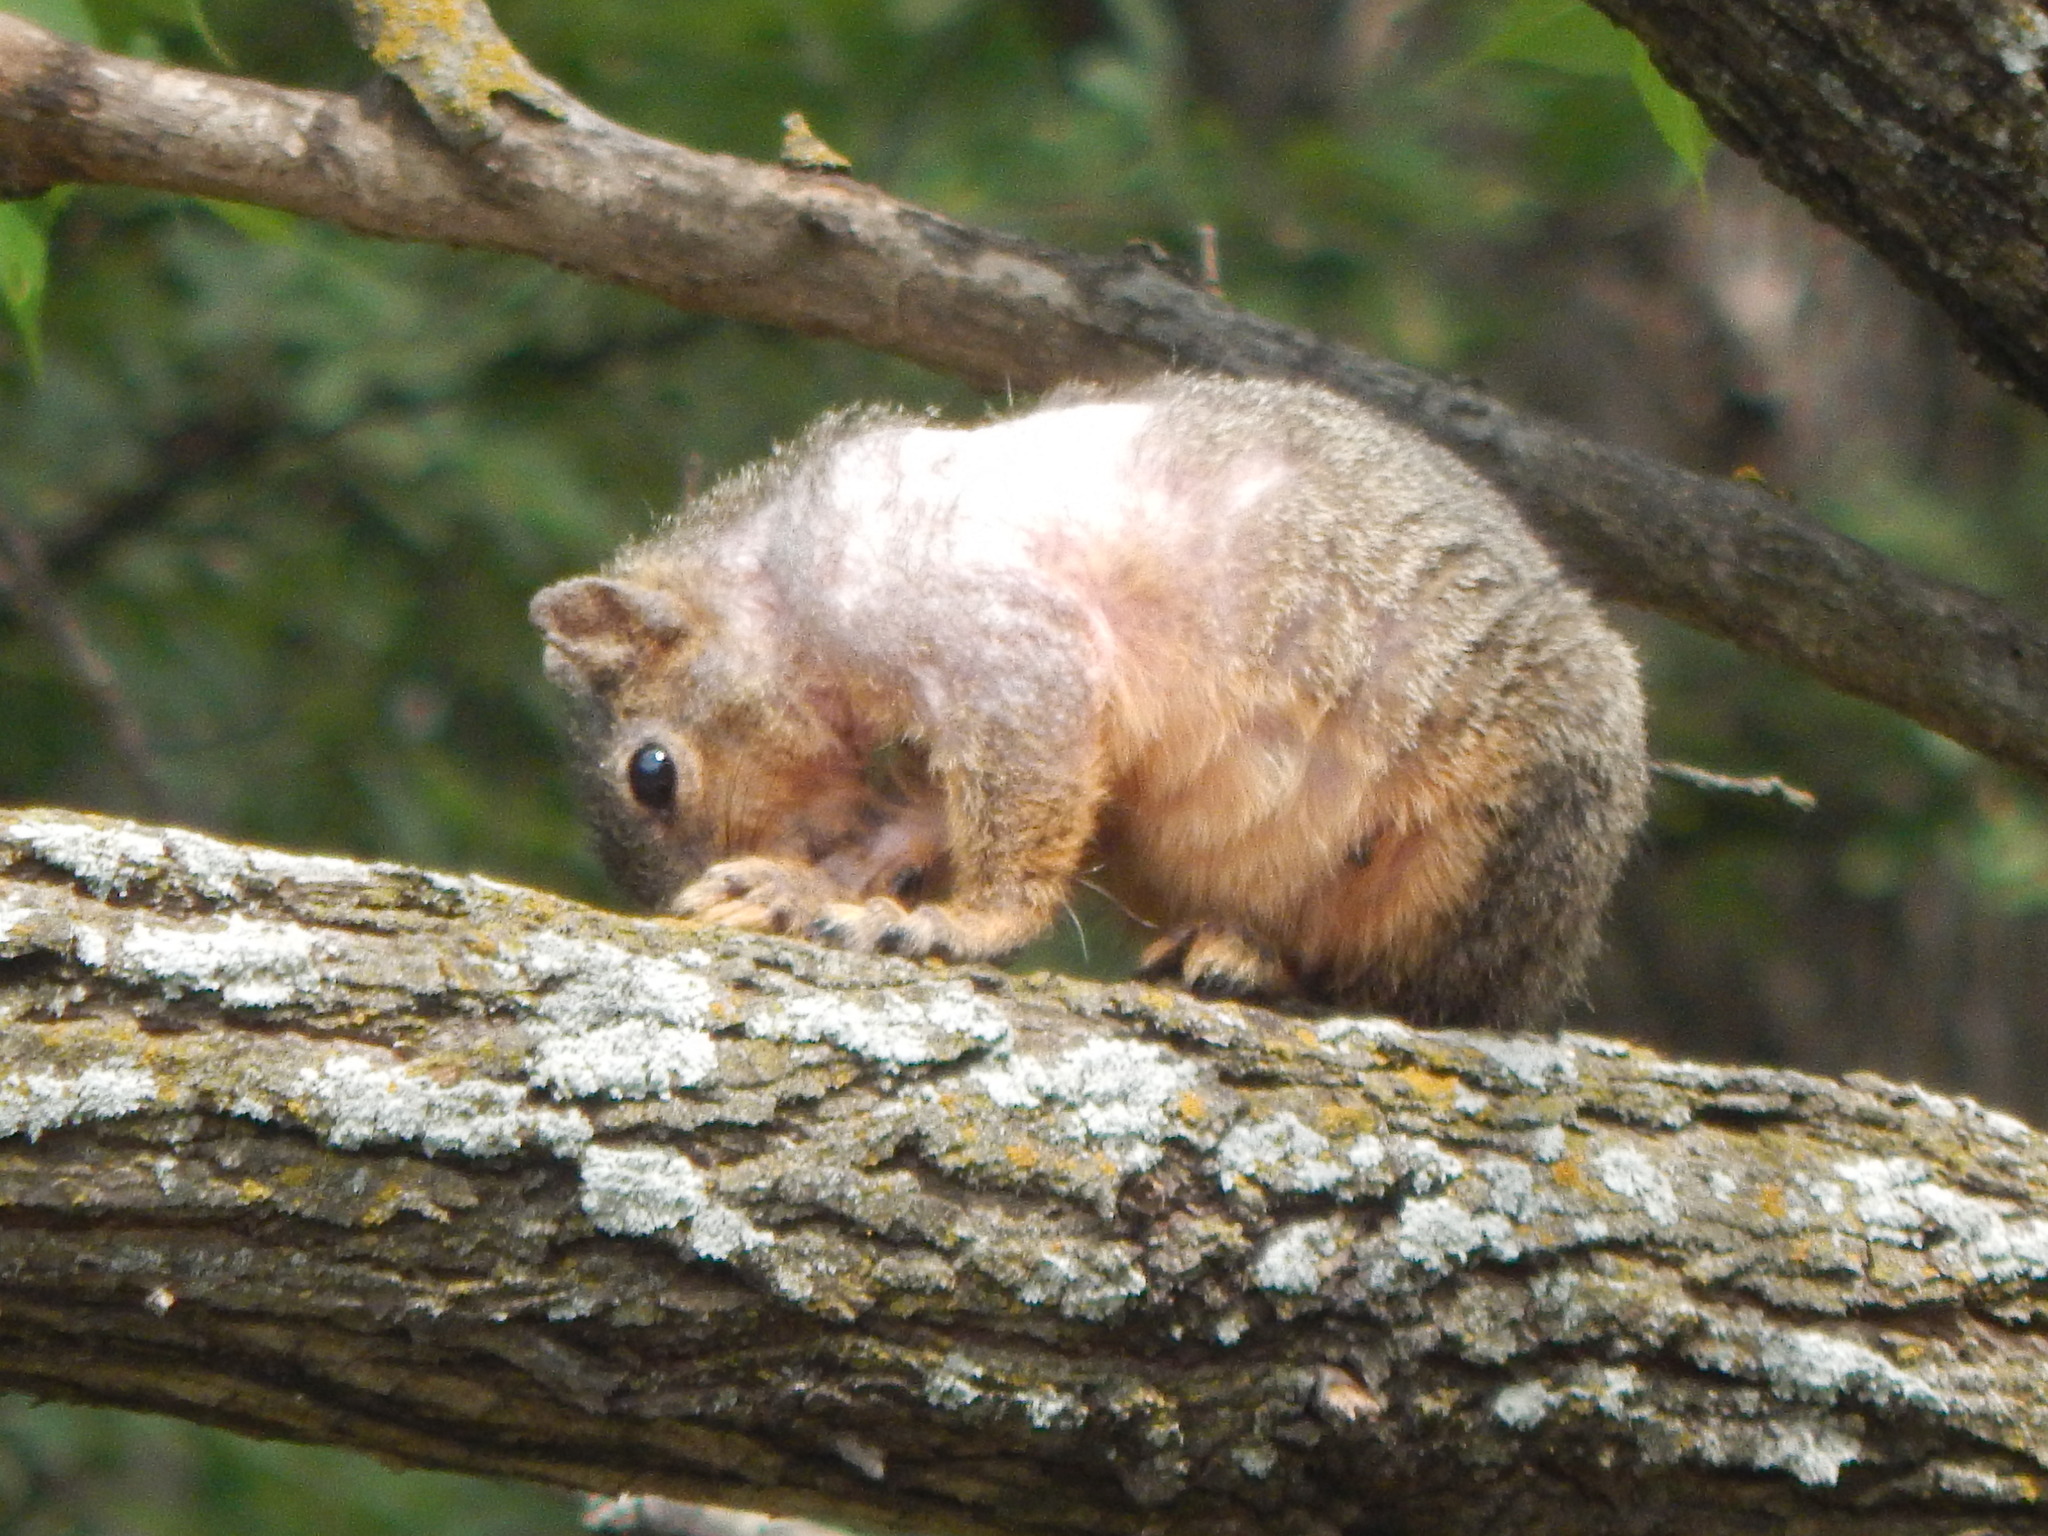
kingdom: Animalia
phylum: Chordata
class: Mammalia
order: Rodentia
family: Sciuridae
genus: Sciurus
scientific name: Sciurus niger
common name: Fox squirrel
